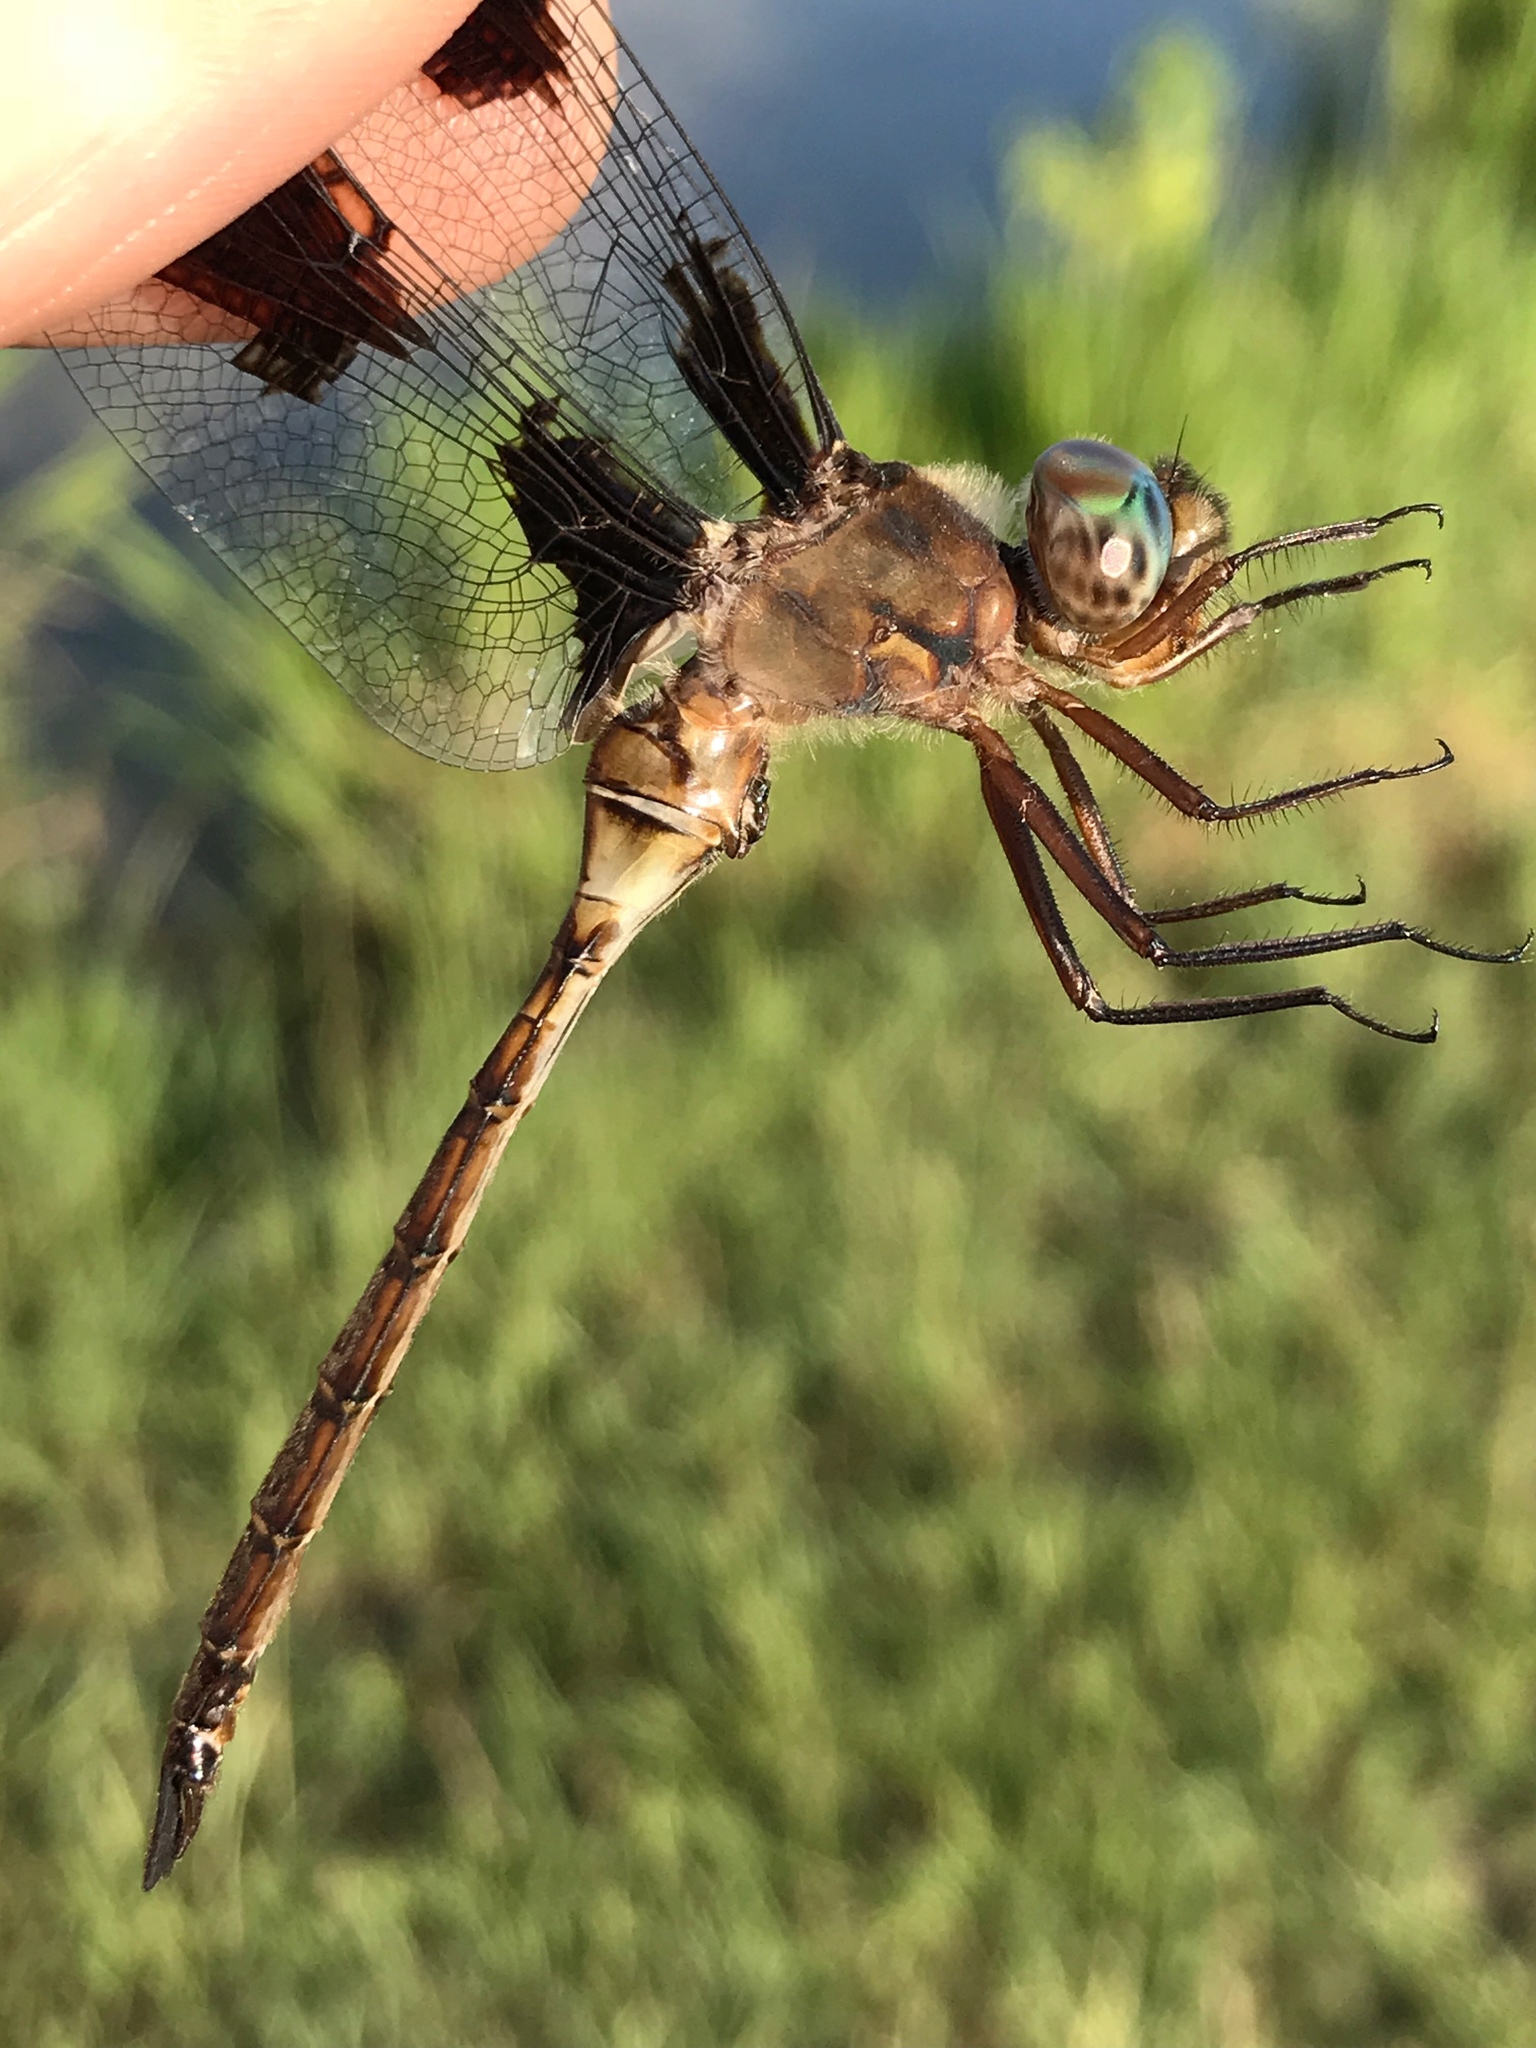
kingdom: Animalia
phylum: Arthropoda
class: Insecta
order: Odonata
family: Corduliidae
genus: Epitheca
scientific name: Epitheca princeps
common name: Prince baskettail
